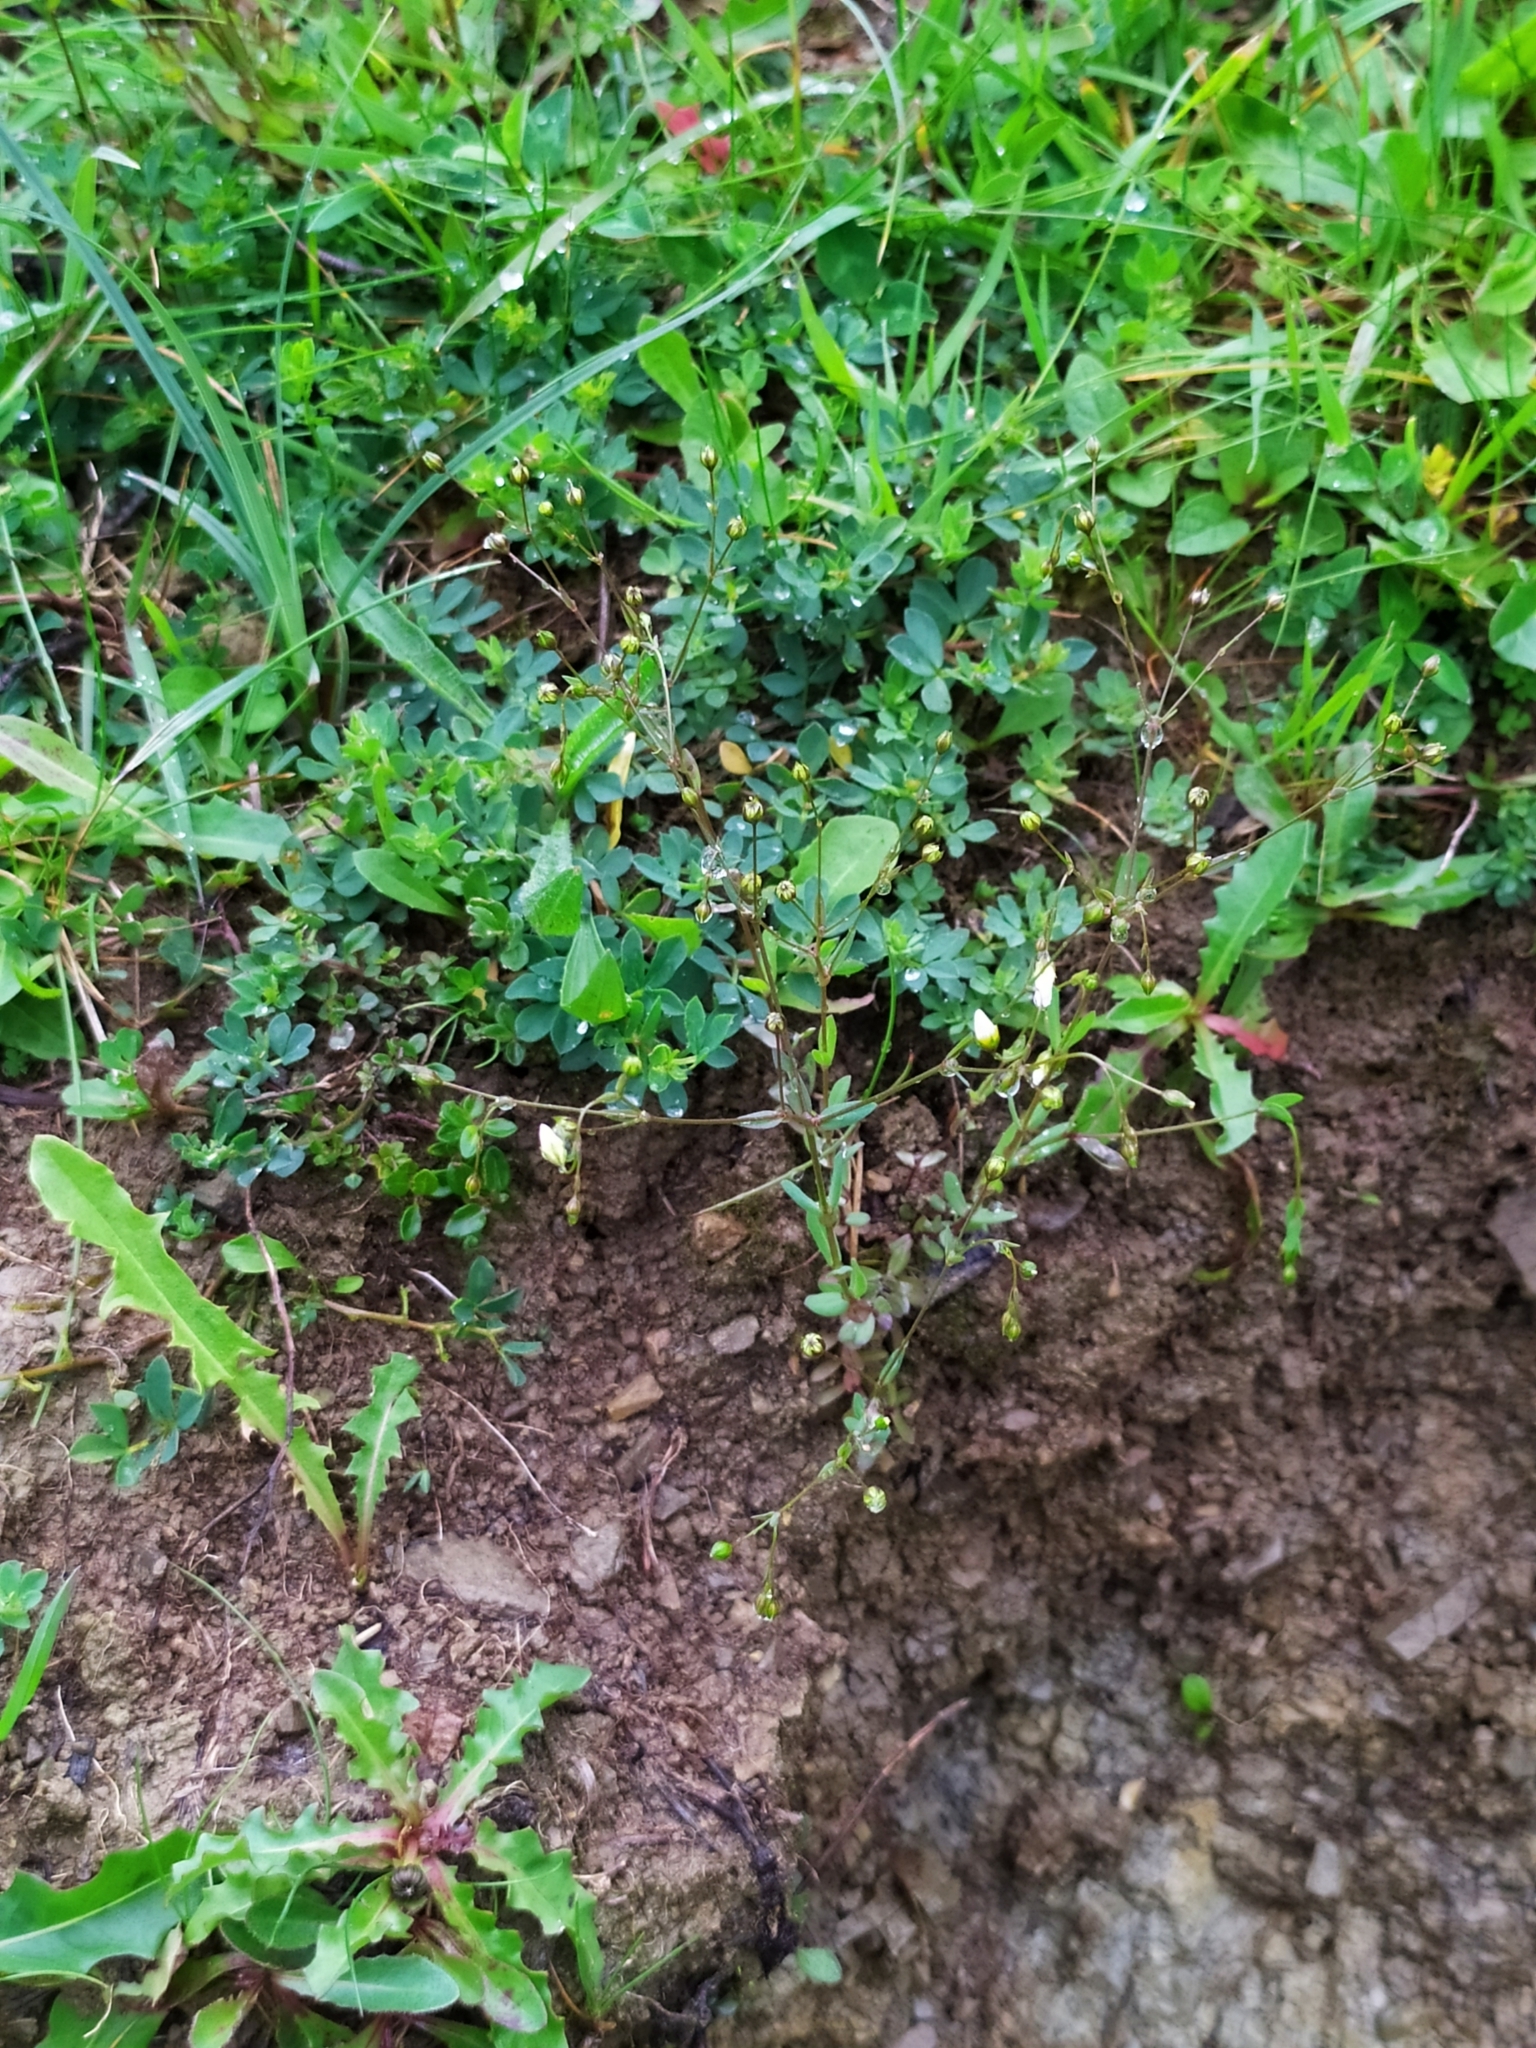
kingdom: Plantae
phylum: Tracheophyta
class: Magnoliopsida
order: Malpighiales
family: Linaceae
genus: Linum
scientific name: Linum catharticum
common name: Fairy flax
